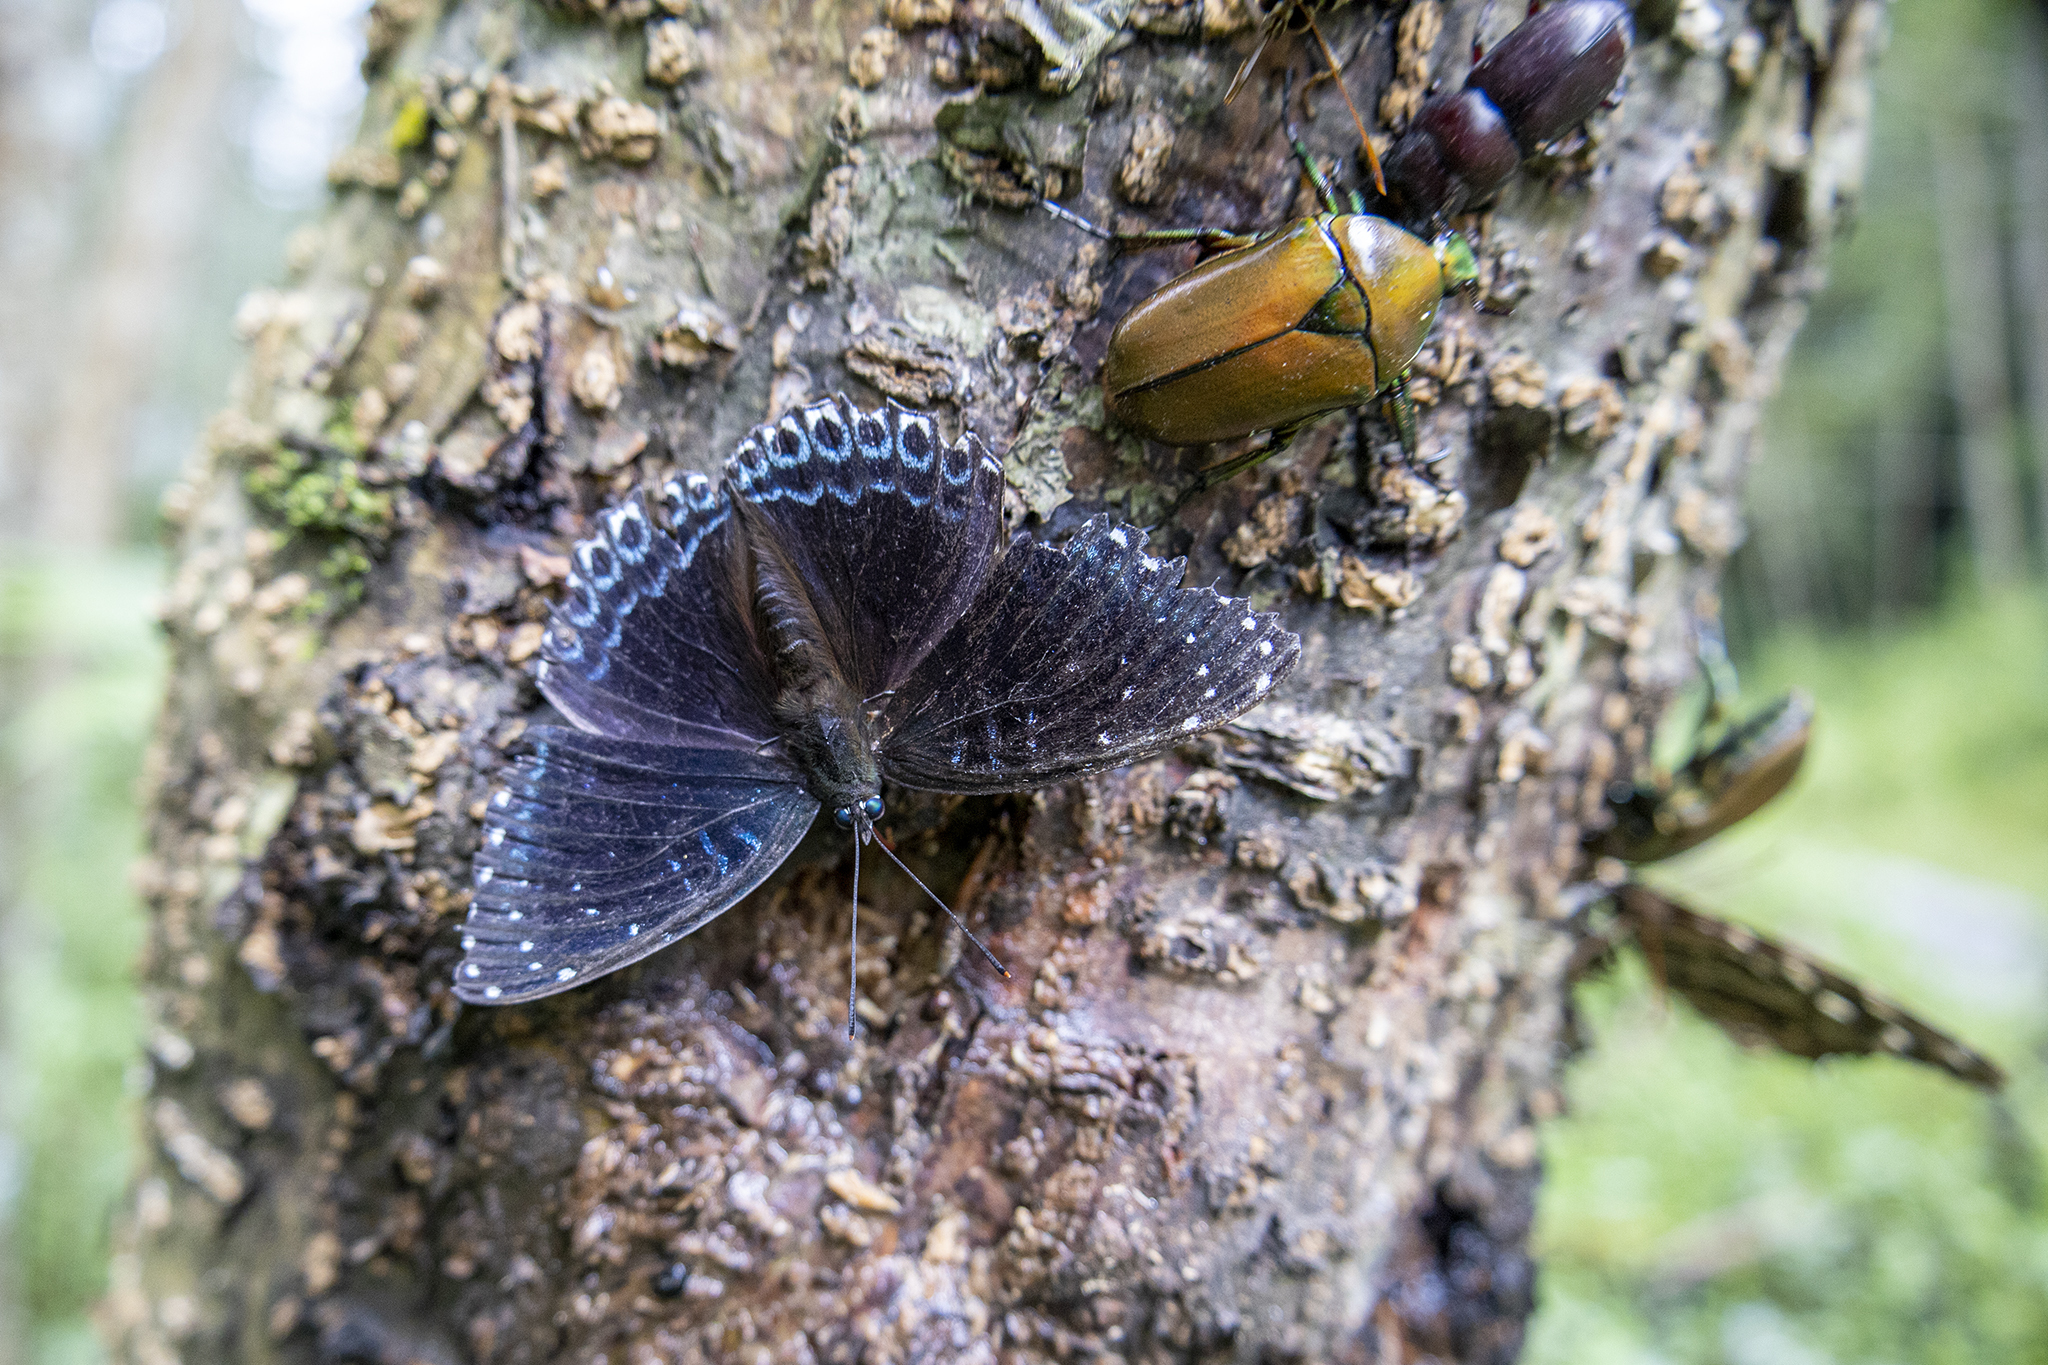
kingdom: Animalia
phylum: Arthropoda
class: Insecta
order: Lepidoptera
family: Nymphalidae
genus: Stibochiona
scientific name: Stibochiona nicea
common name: Popinjay
